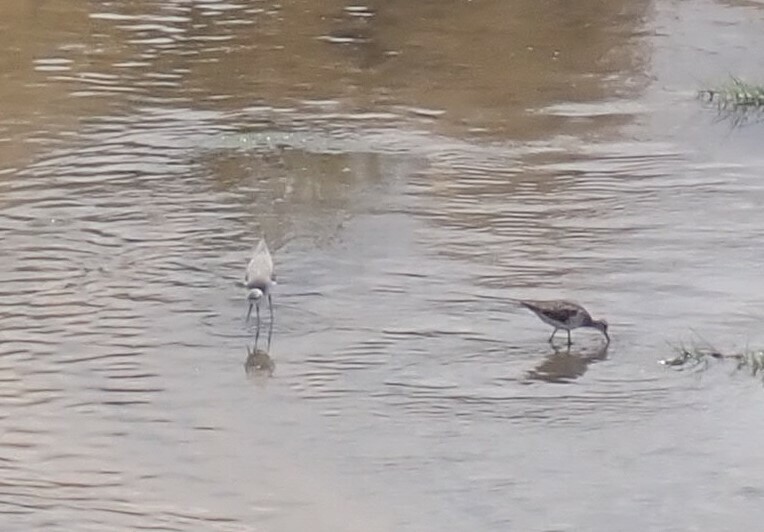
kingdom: Animalia
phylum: Chordata
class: Aves
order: Charadriiformes
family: Scolopacidae
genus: Tringa
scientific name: Tringa stagnatilis
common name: Marsh sandpiper
